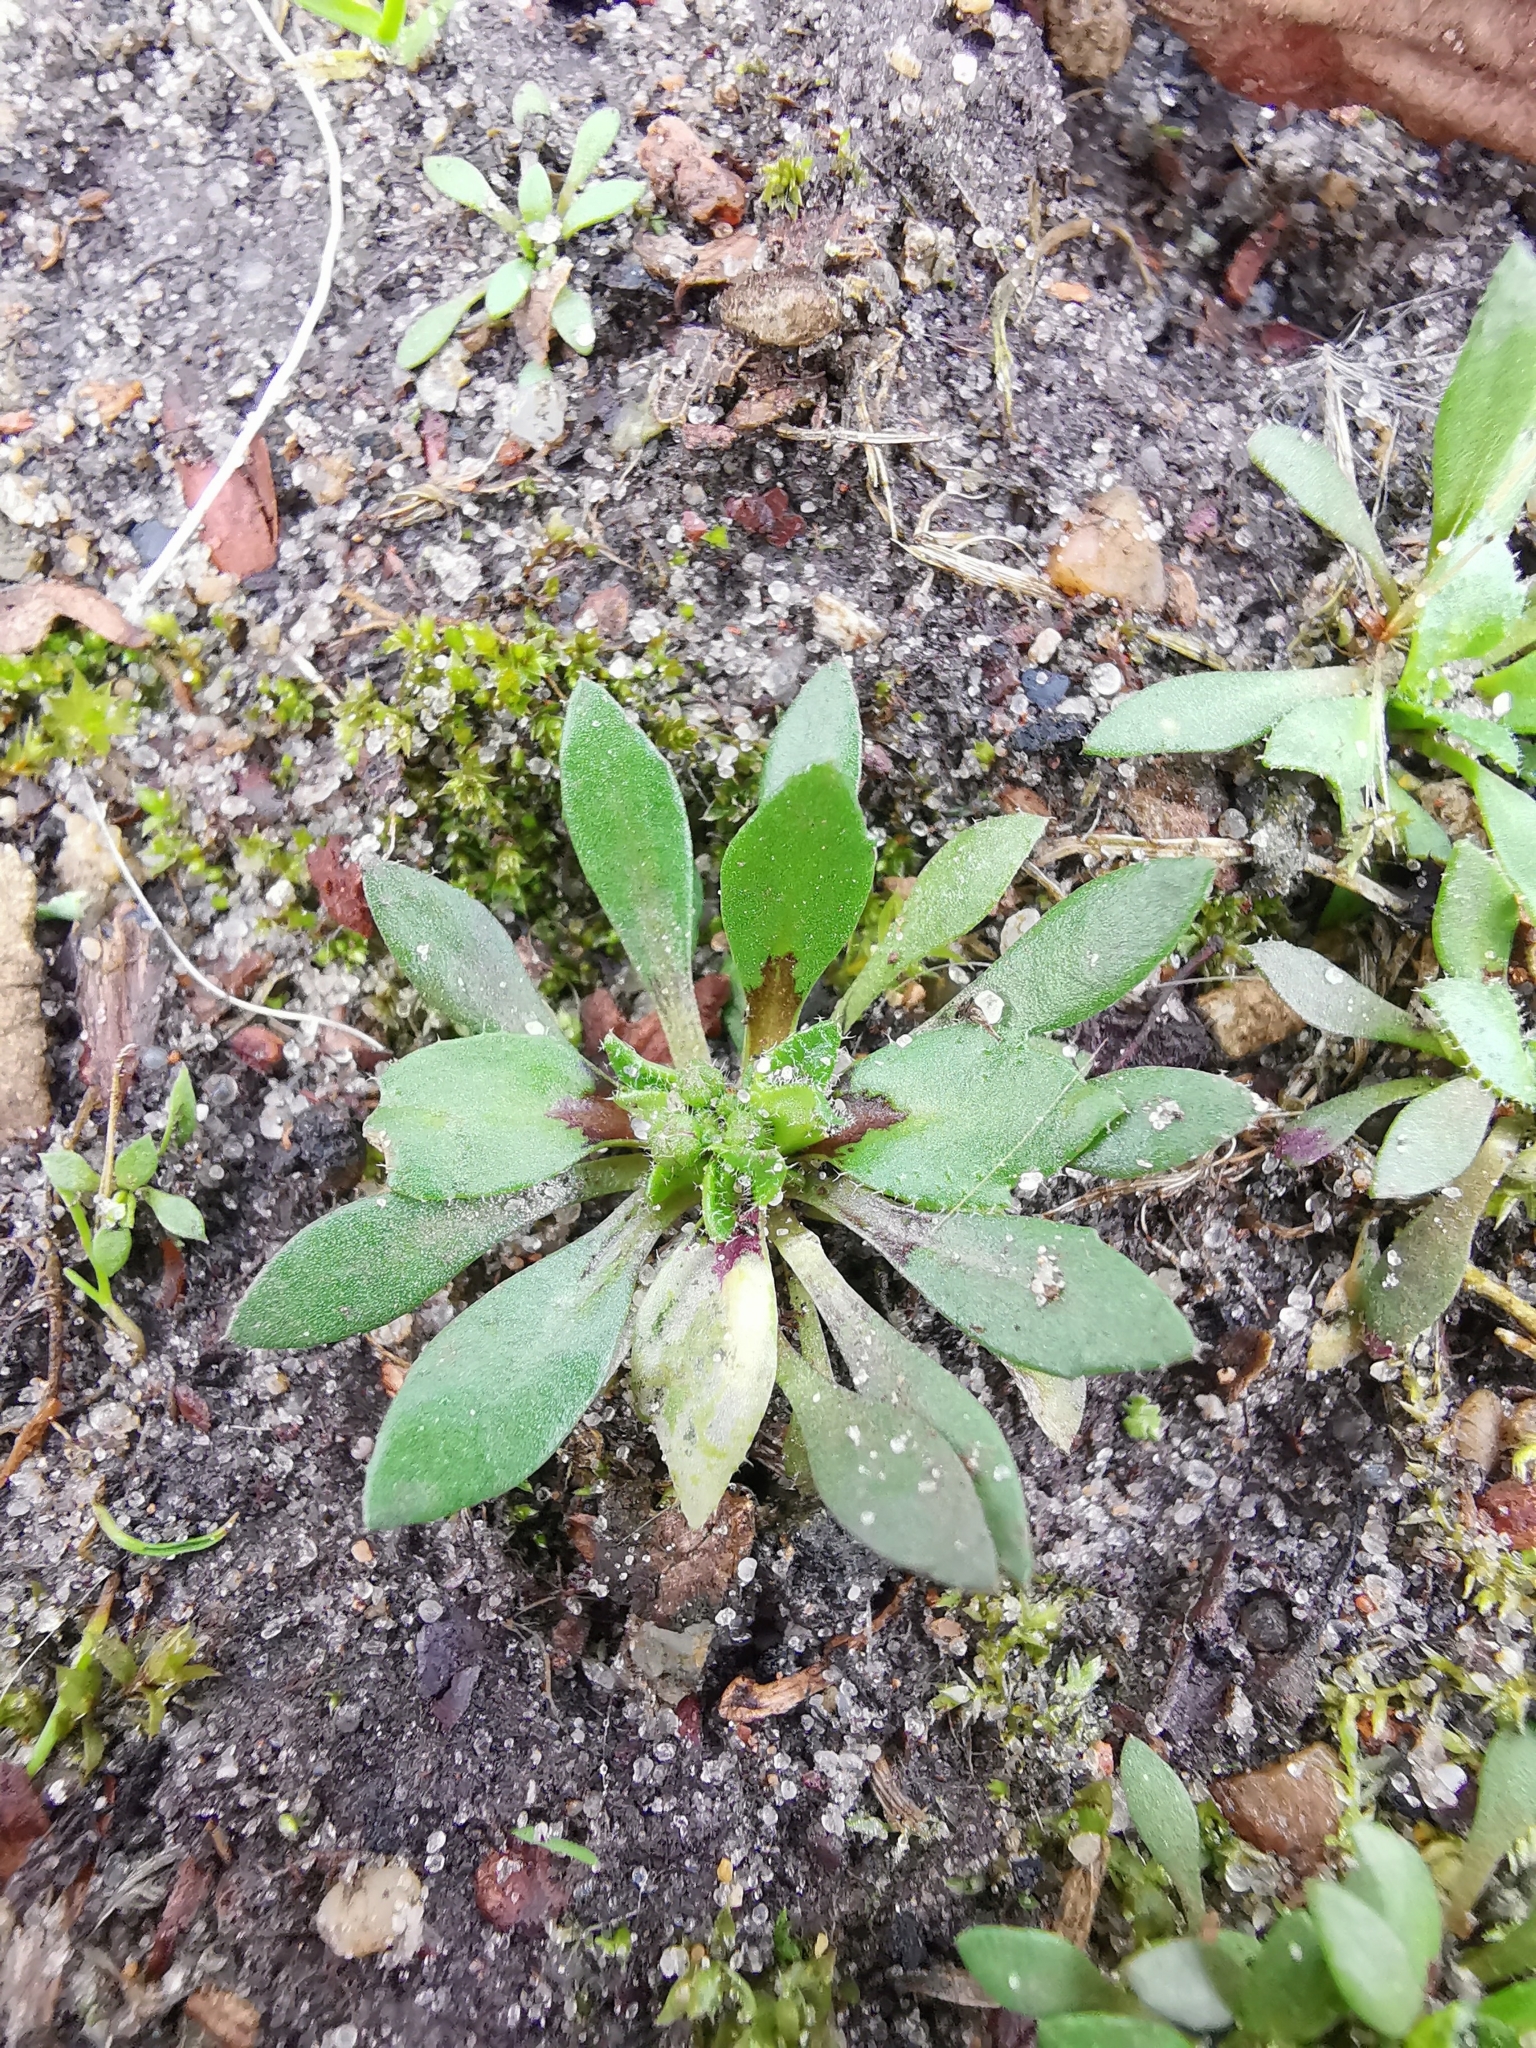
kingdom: Plantae
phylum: Tracheophyta
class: Magnoliopsida
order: Brassicales
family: Brassicaceae
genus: Draba
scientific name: Draba verna
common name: Spring draba
